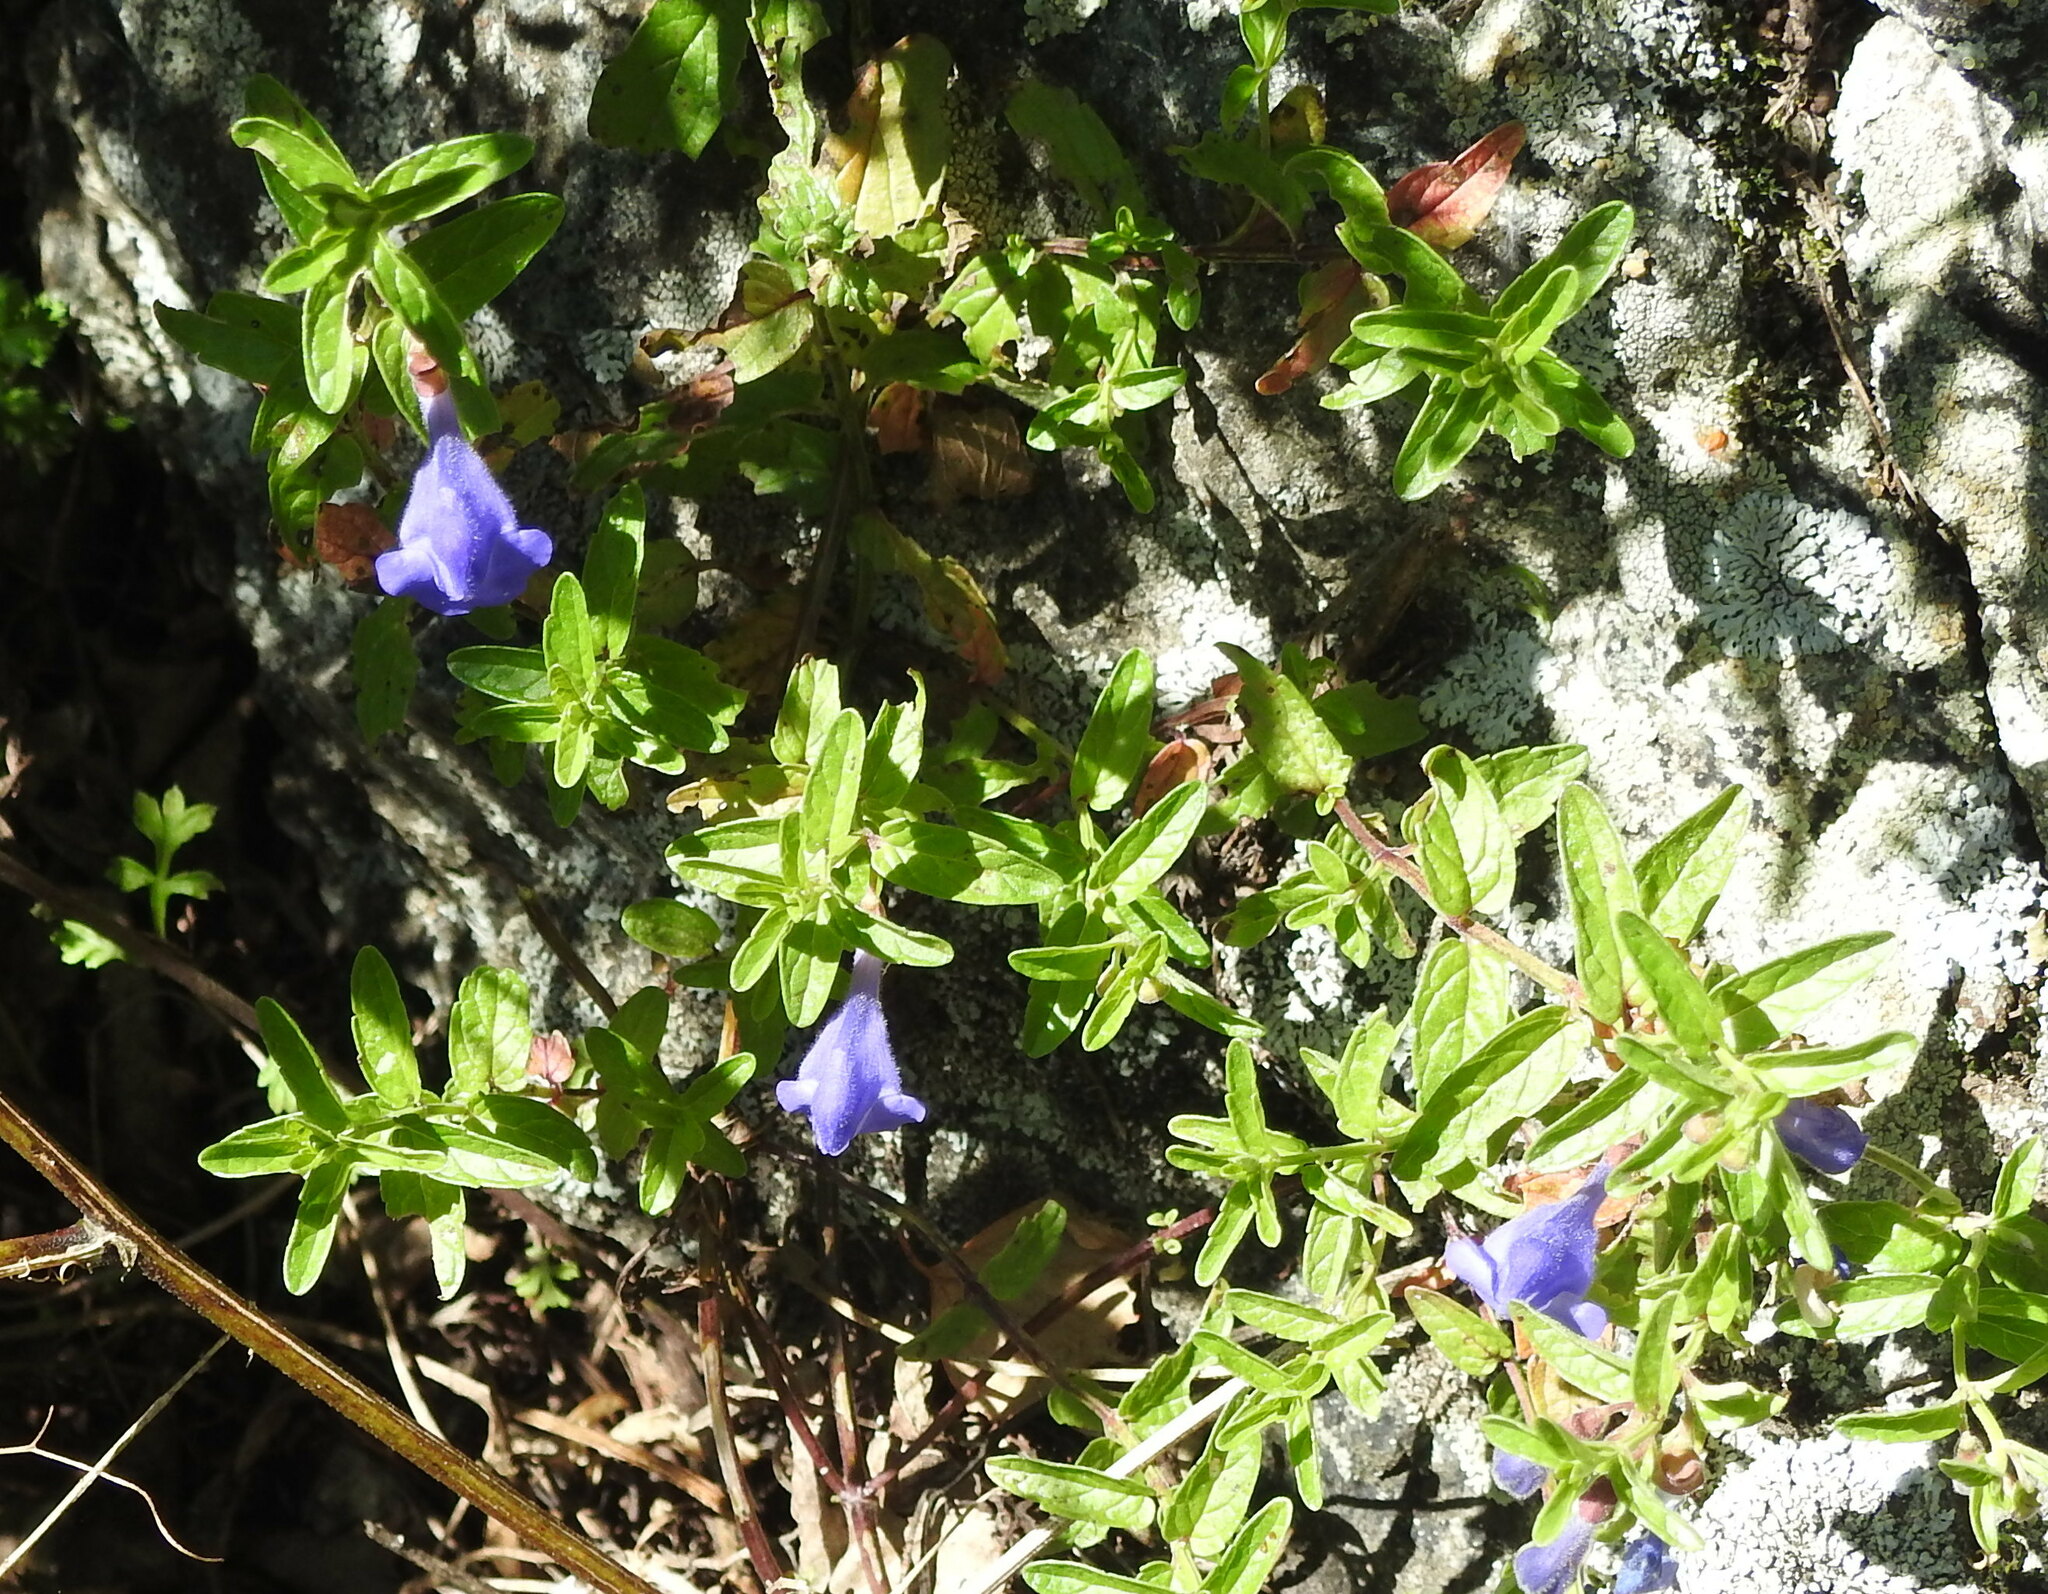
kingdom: Plantae
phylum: Tracheophyta
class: Magnoliopsida
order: Lamiales
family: Lamiaceae
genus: Scutellaria
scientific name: Scutellaria scordiifolia
